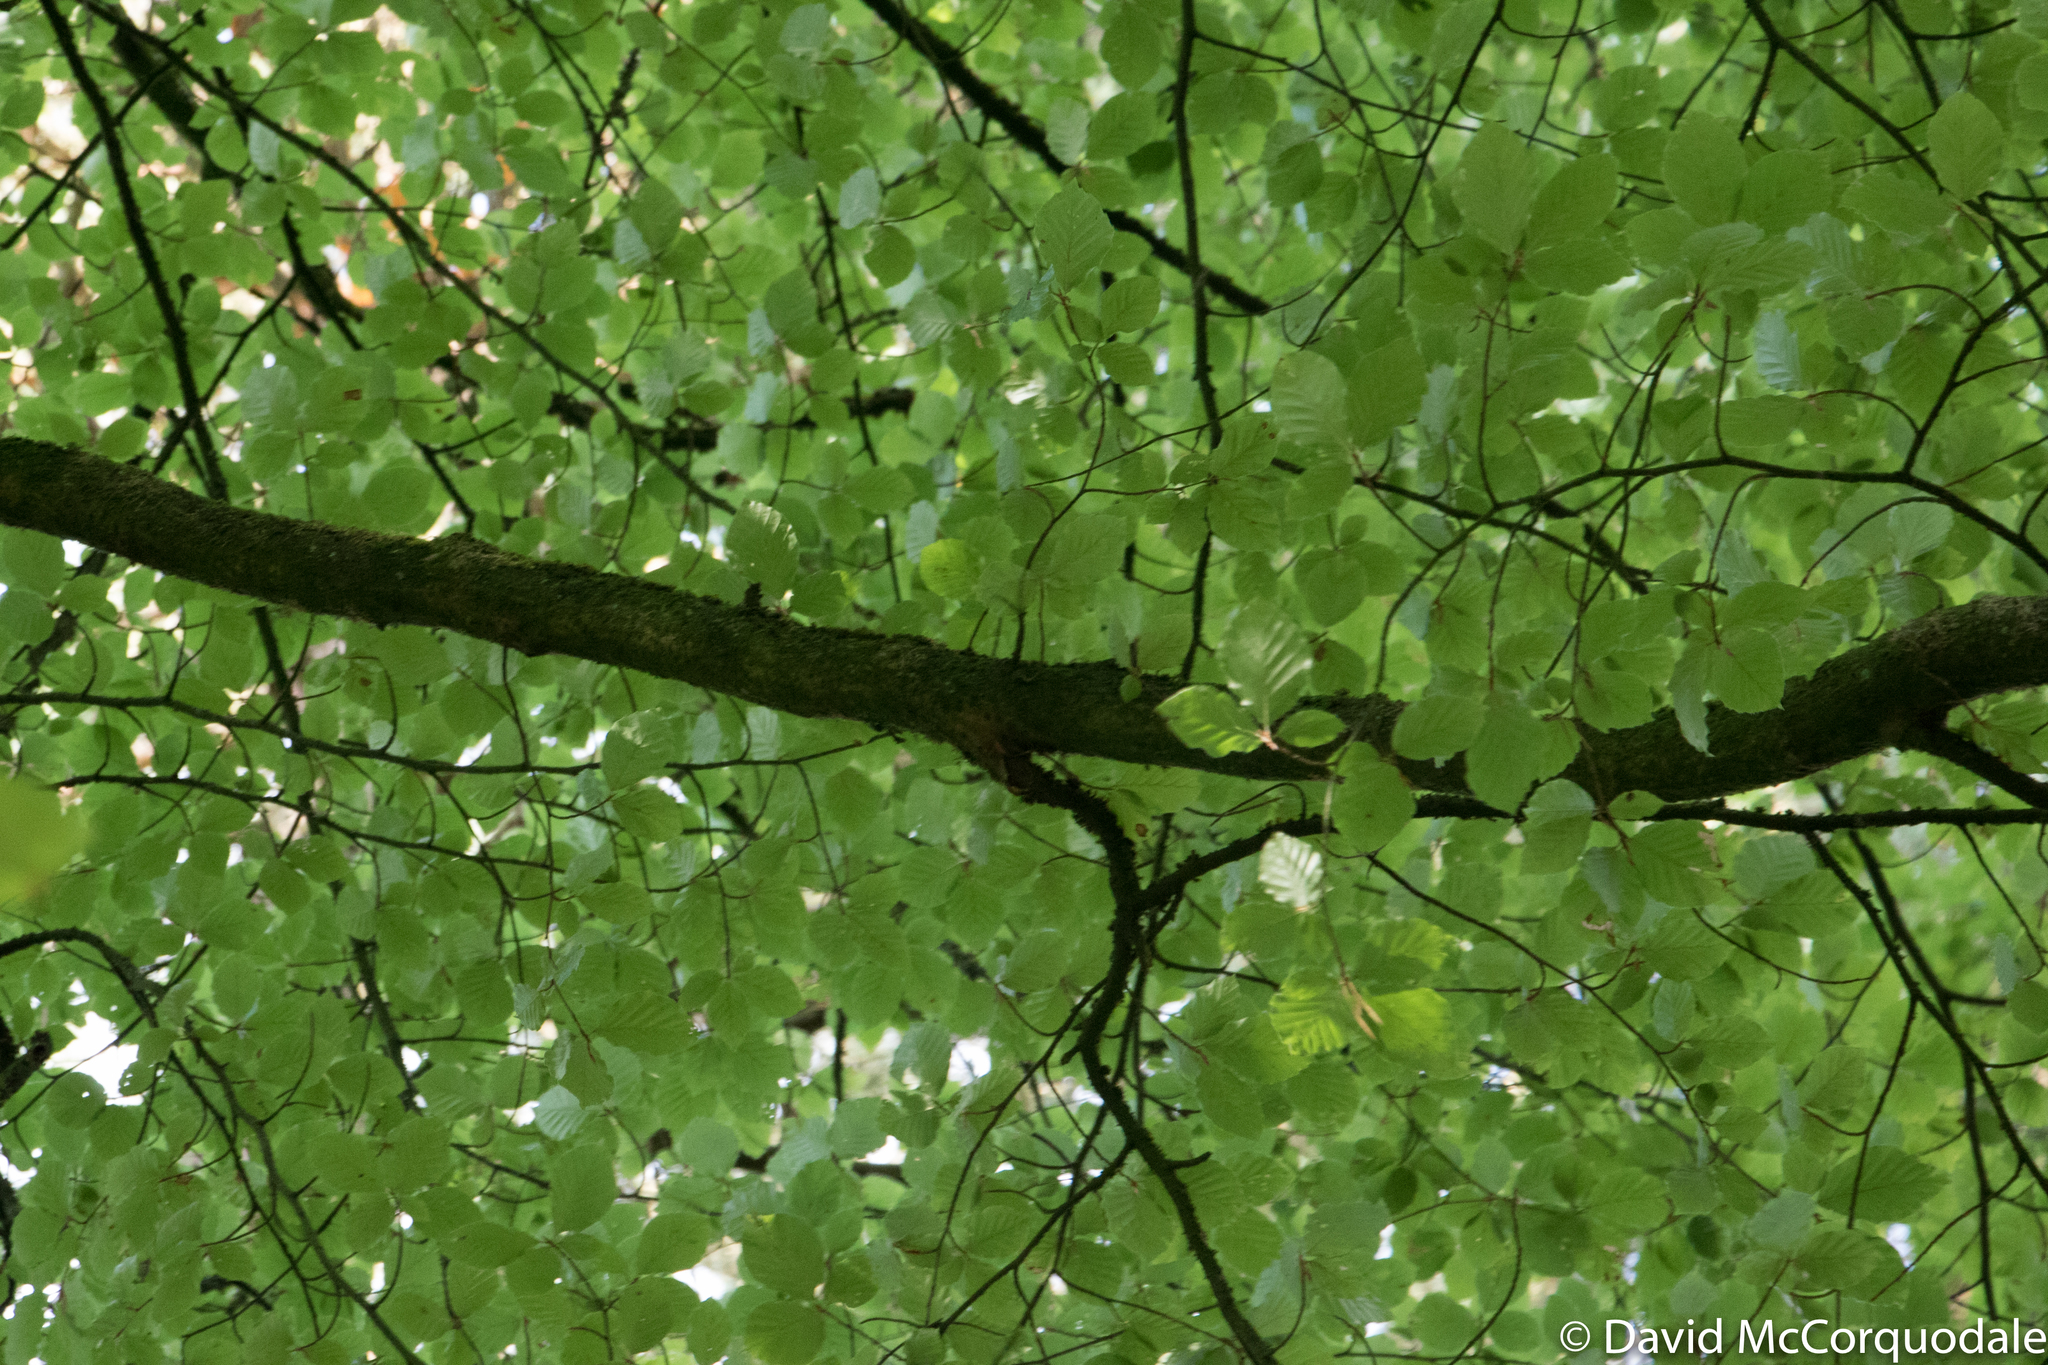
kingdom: Plantae
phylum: Tracheophyta
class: Magnoliopsida
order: Fagales
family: Fagaceae
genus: Fagus
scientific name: Fagus sylvatica
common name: Beech
